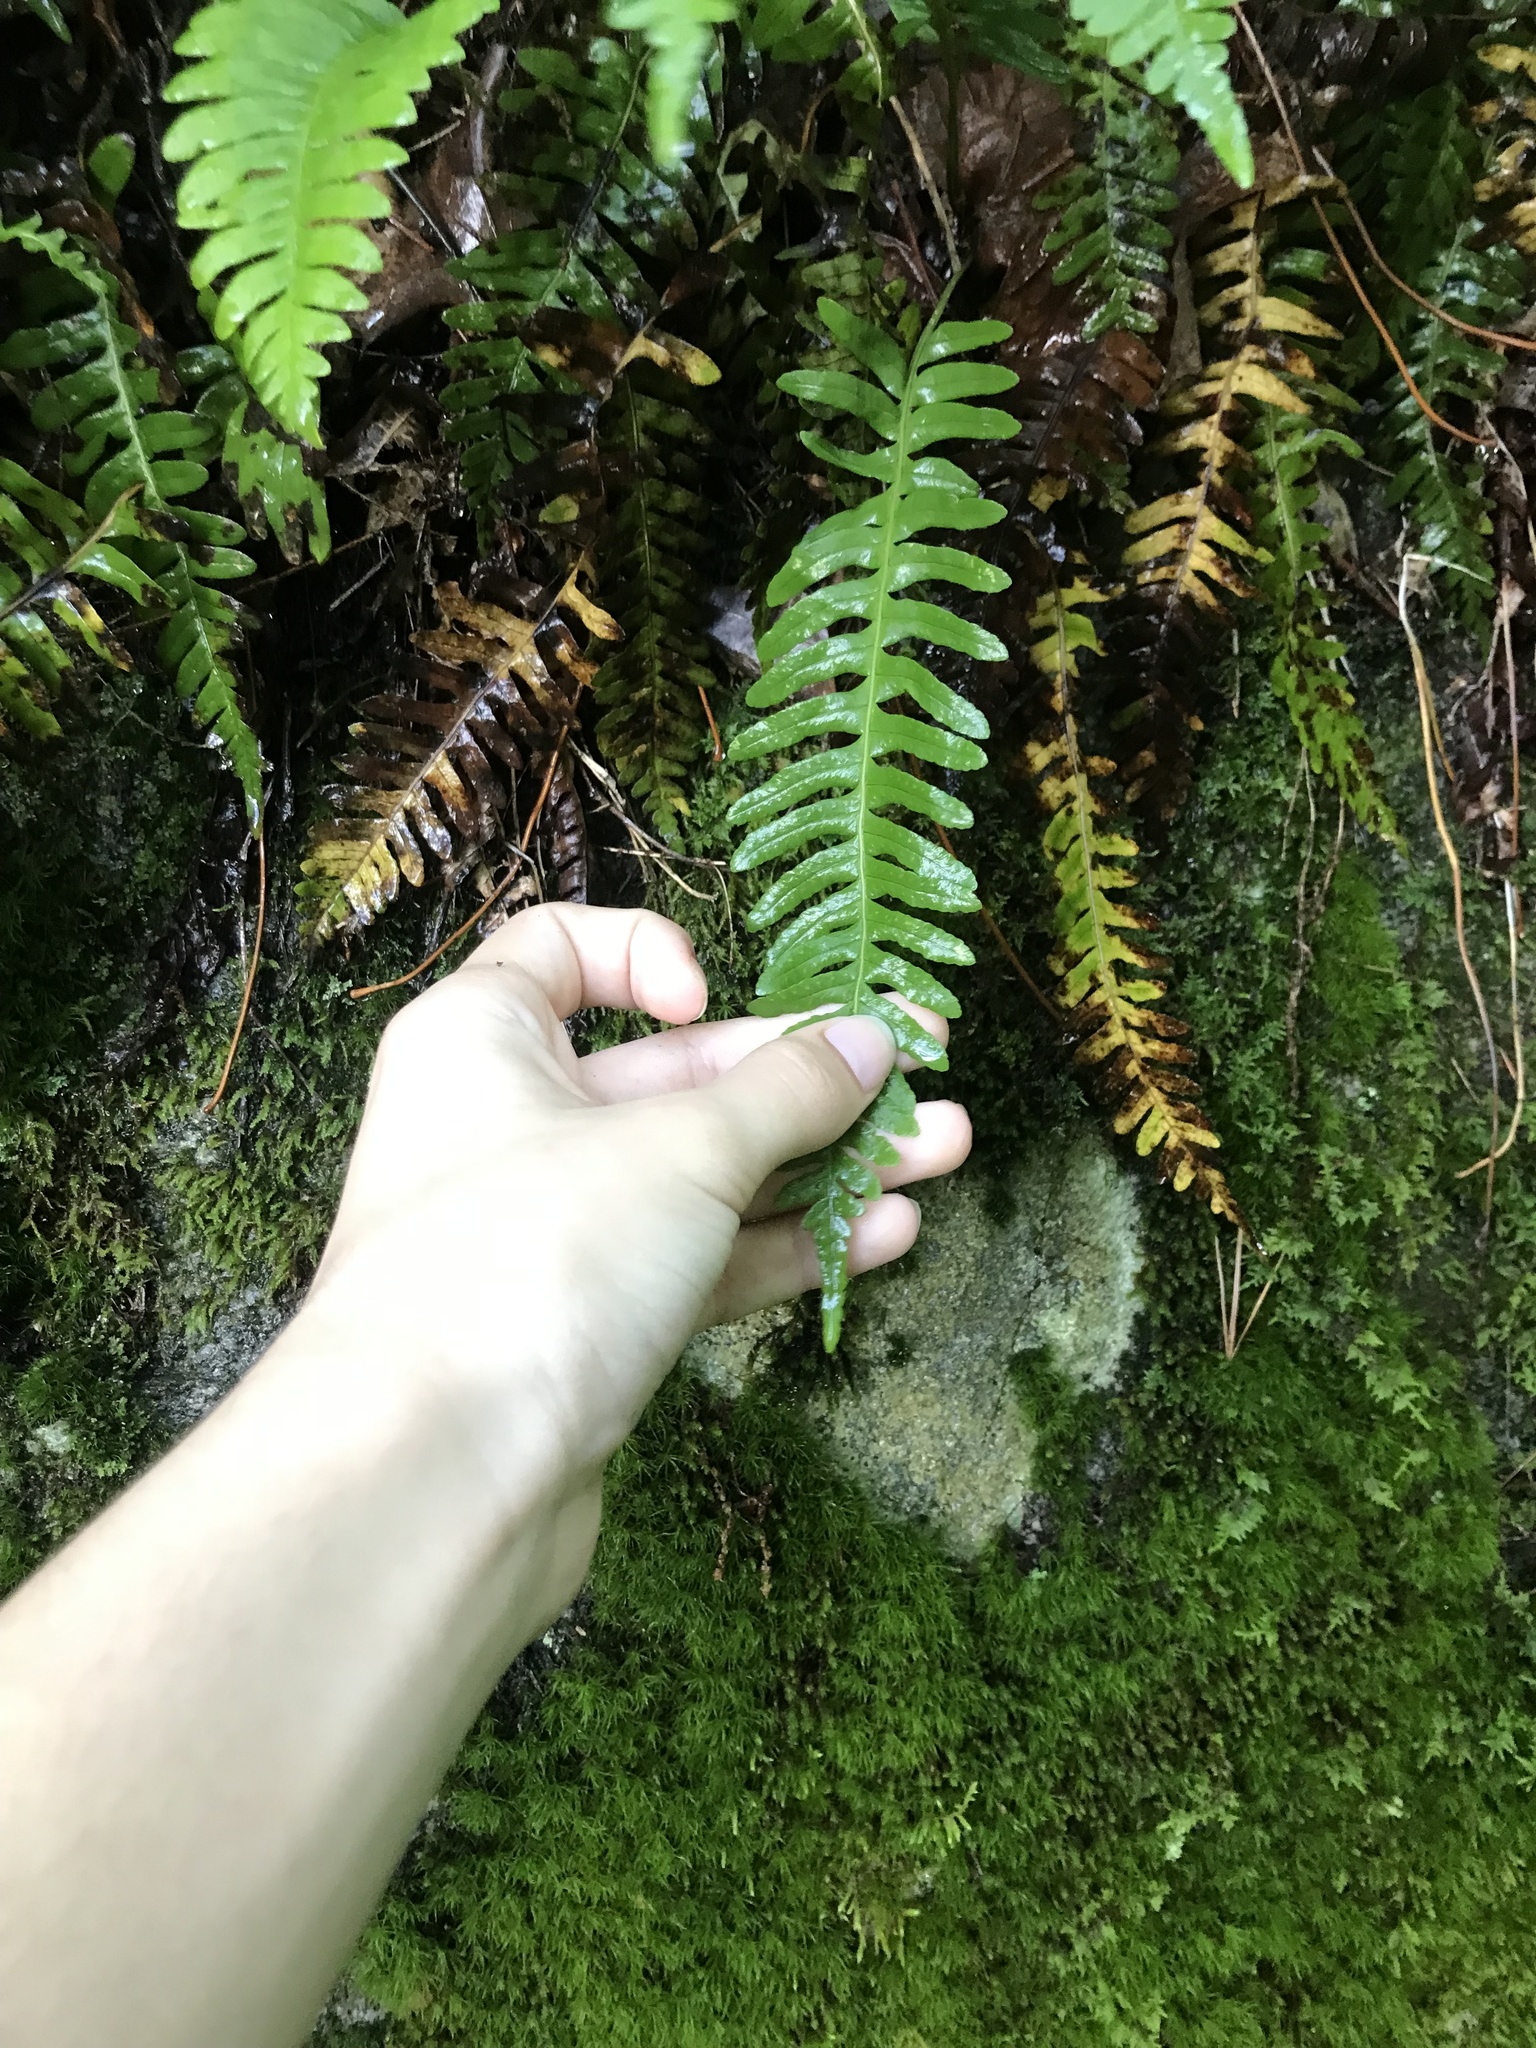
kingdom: Plantae
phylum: Tracheophyta
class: Polypodiopsida
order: Polypodiales
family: Polypodiaceae
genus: Polypodium
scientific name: Polypodium virginianum
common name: American wall fern
